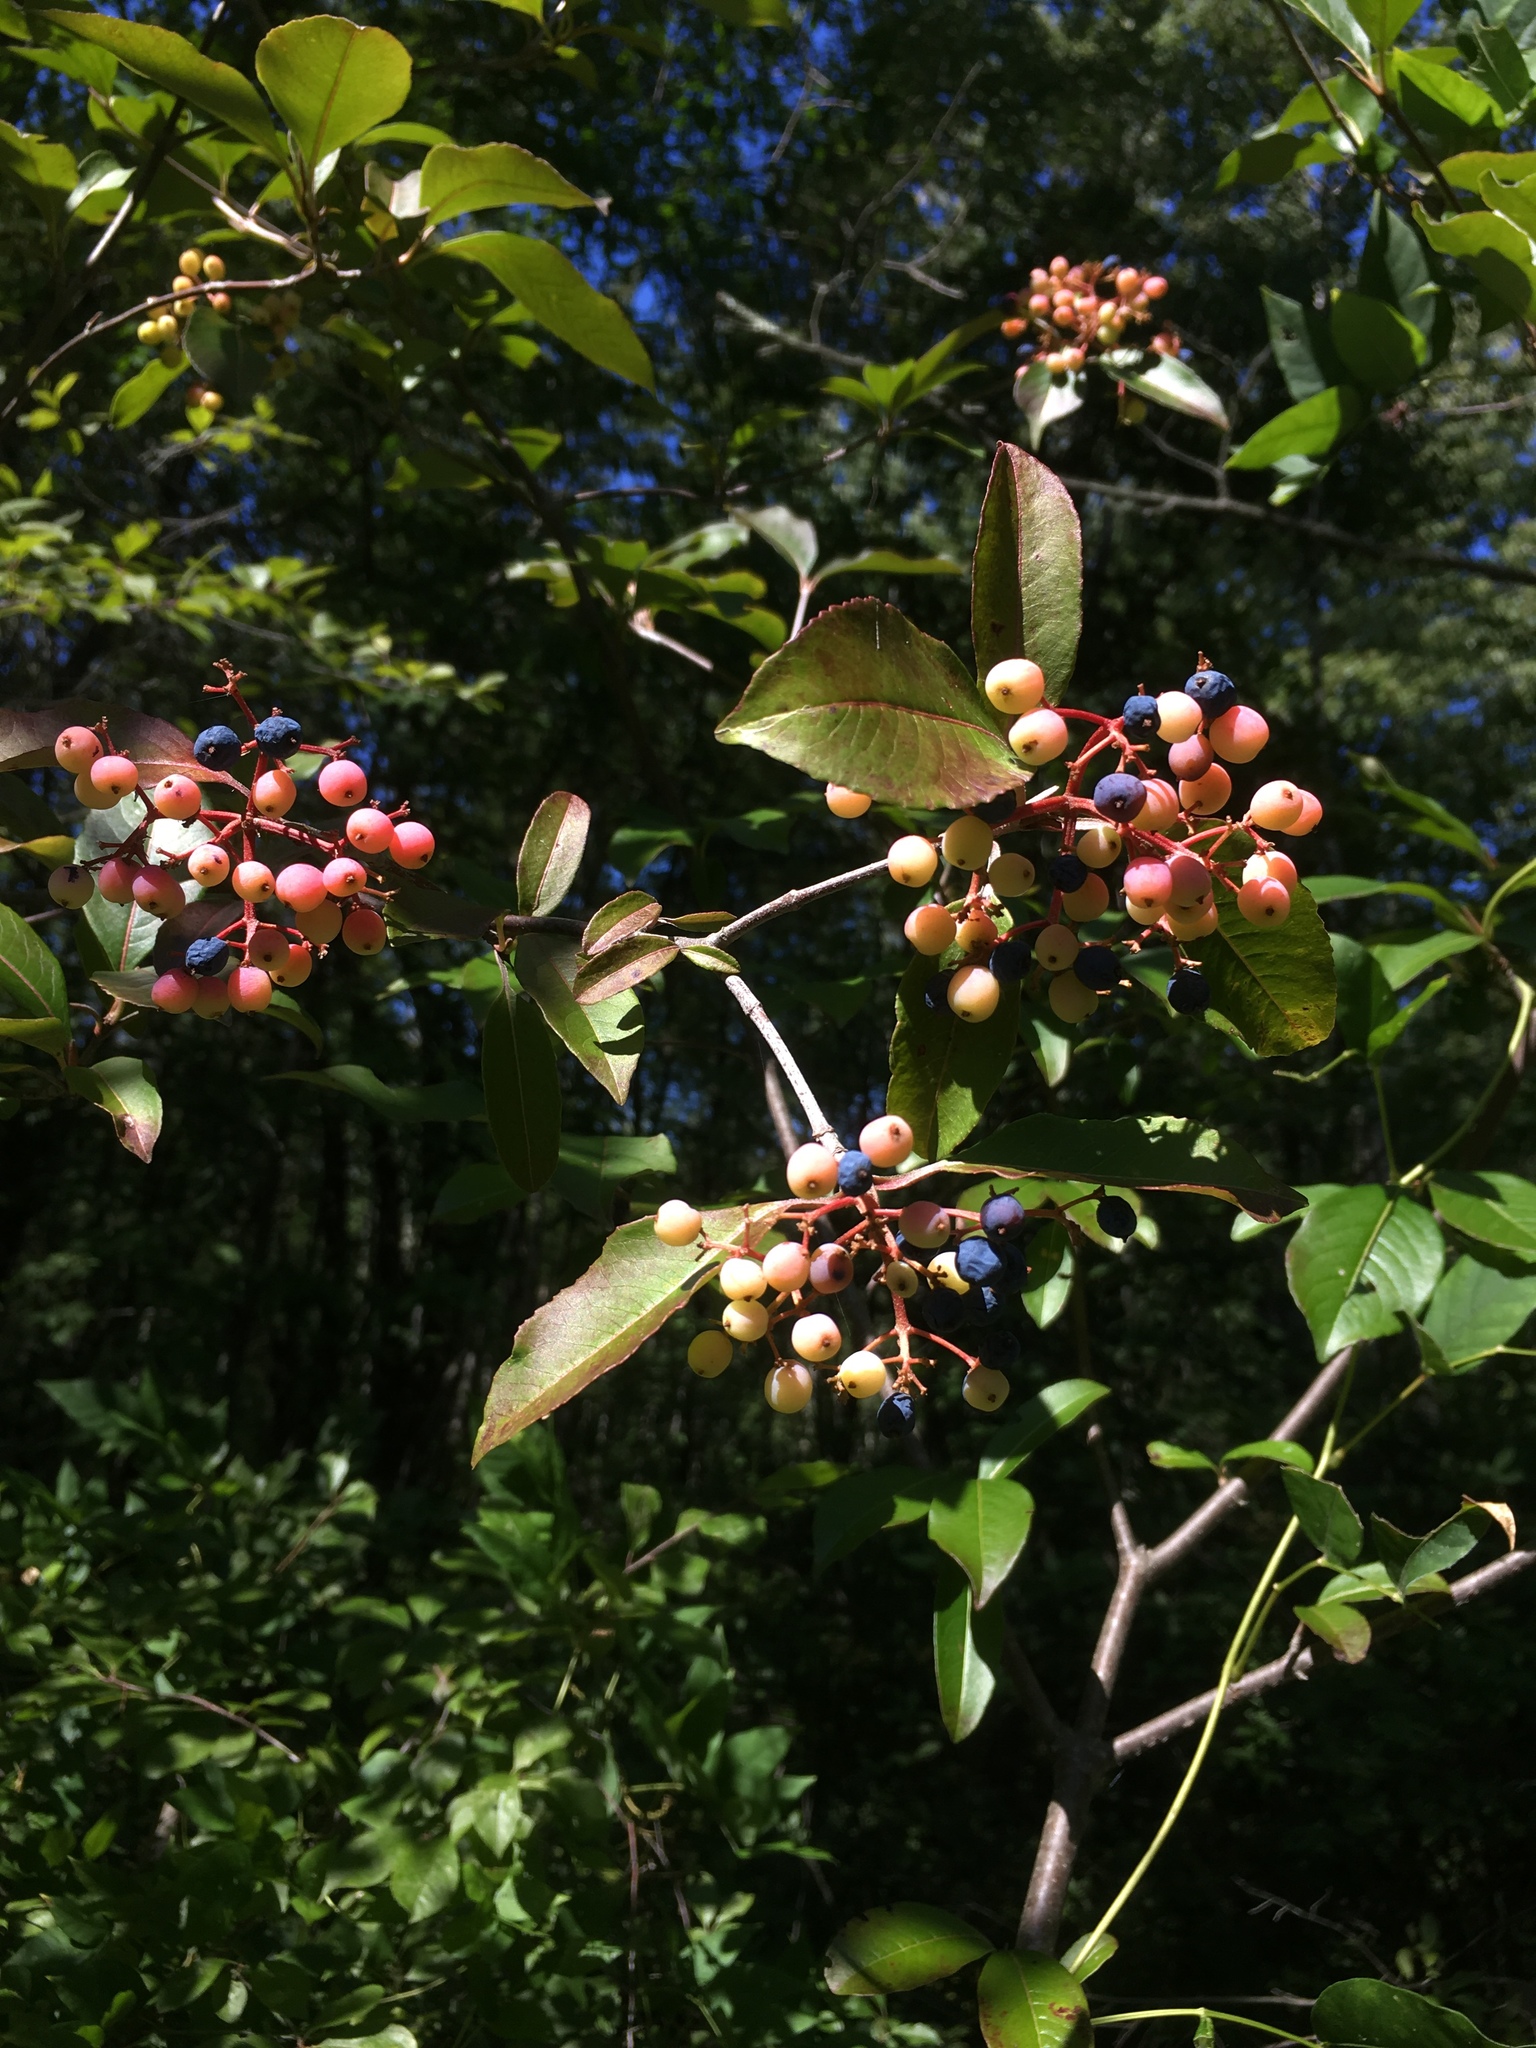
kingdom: Plantae
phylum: Tracheophyta
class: Magnoliopsida
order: Dipsacales
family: Viburnaceae
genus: Viburnum
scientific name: Viburnum cassinoides
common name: Swamp haw
